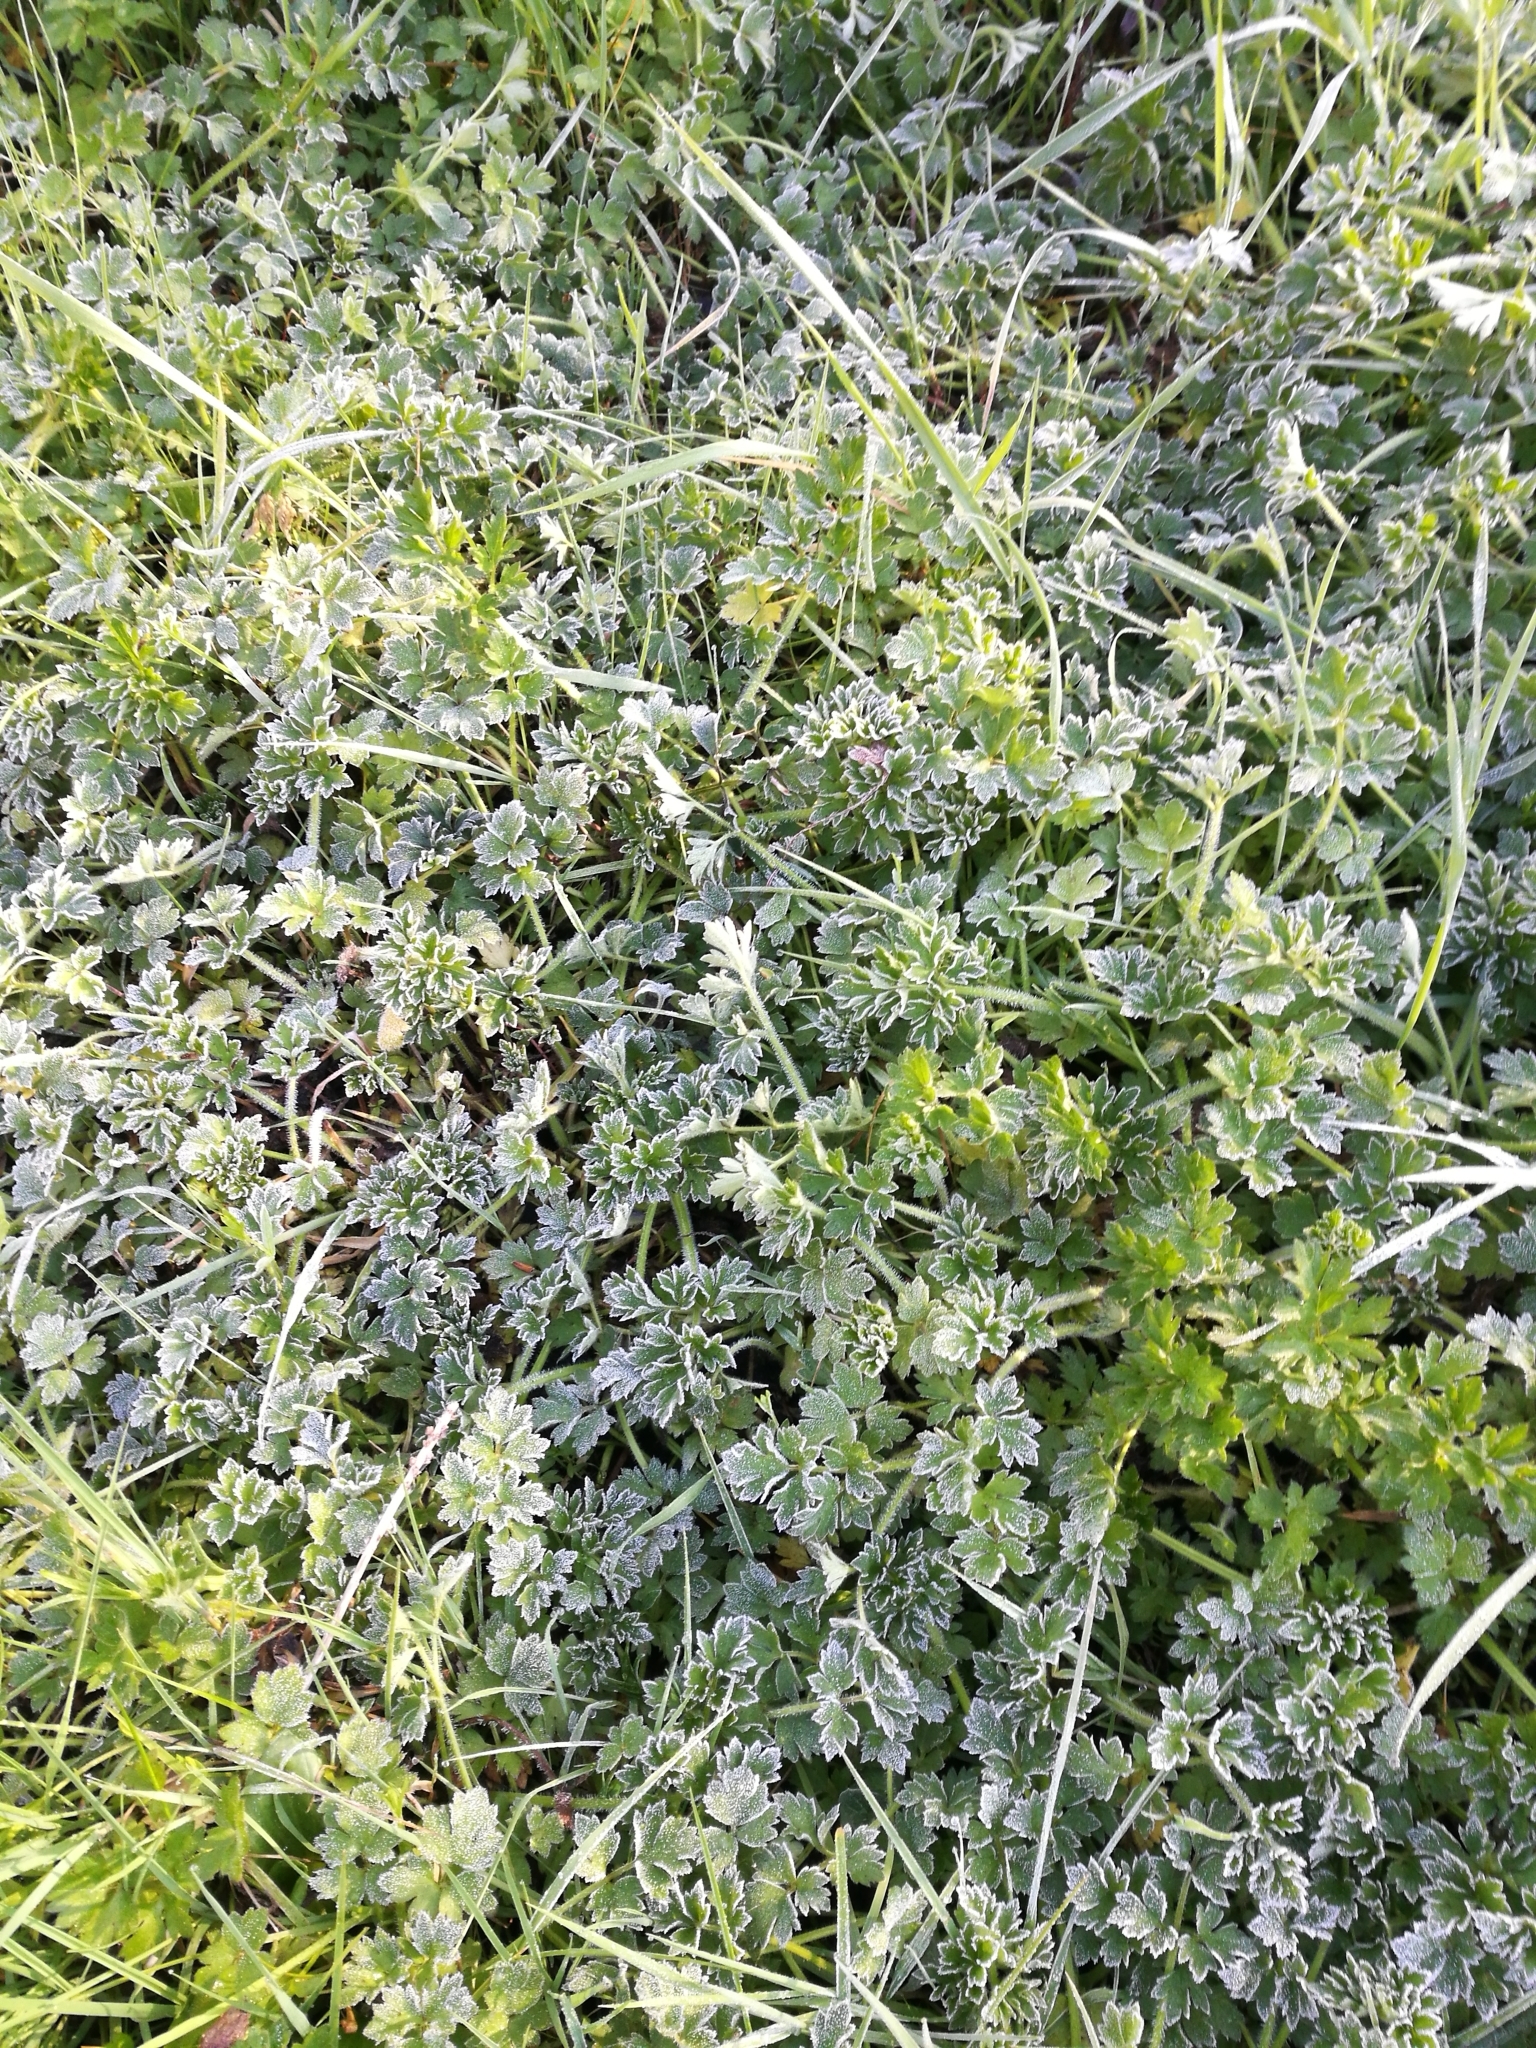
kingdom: Plantae
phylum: Tracheophyta
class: Magnoliopsida
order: Ranunculales
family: Ranunculaceae
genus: Ranunculus
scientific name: Ranunculus repens
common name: Creeping buttercup
